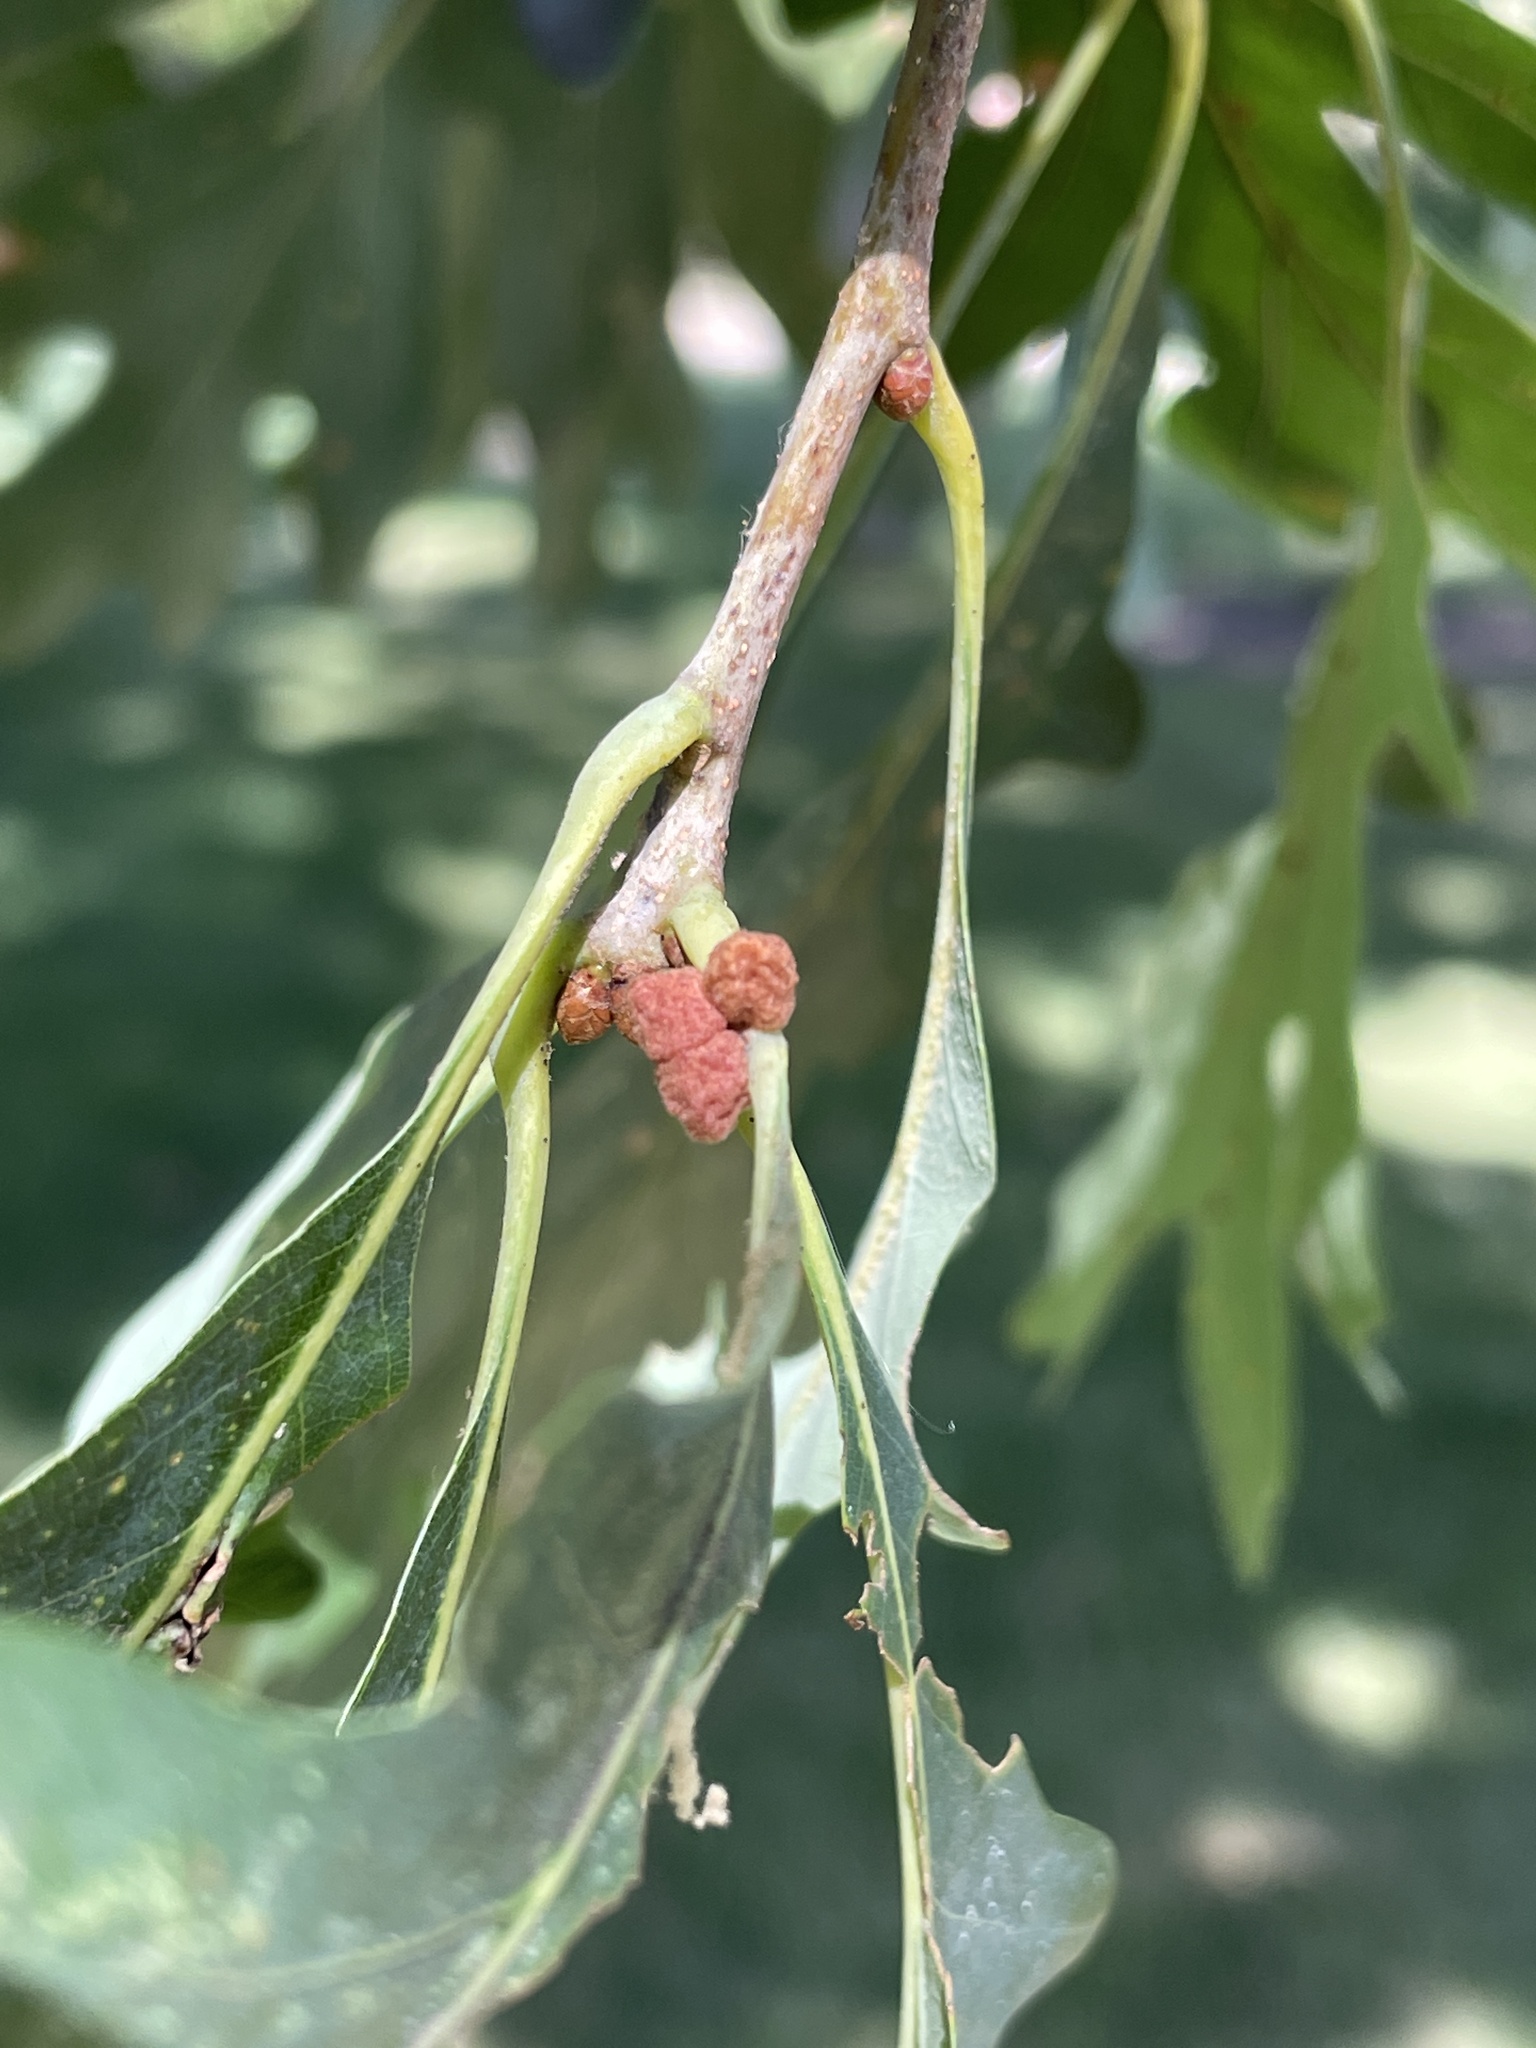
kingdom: Animalia
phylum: Arthropoda
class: Insecta
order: Hymenoptera
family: Cynipidae
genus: Andricus
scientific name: Andricus
